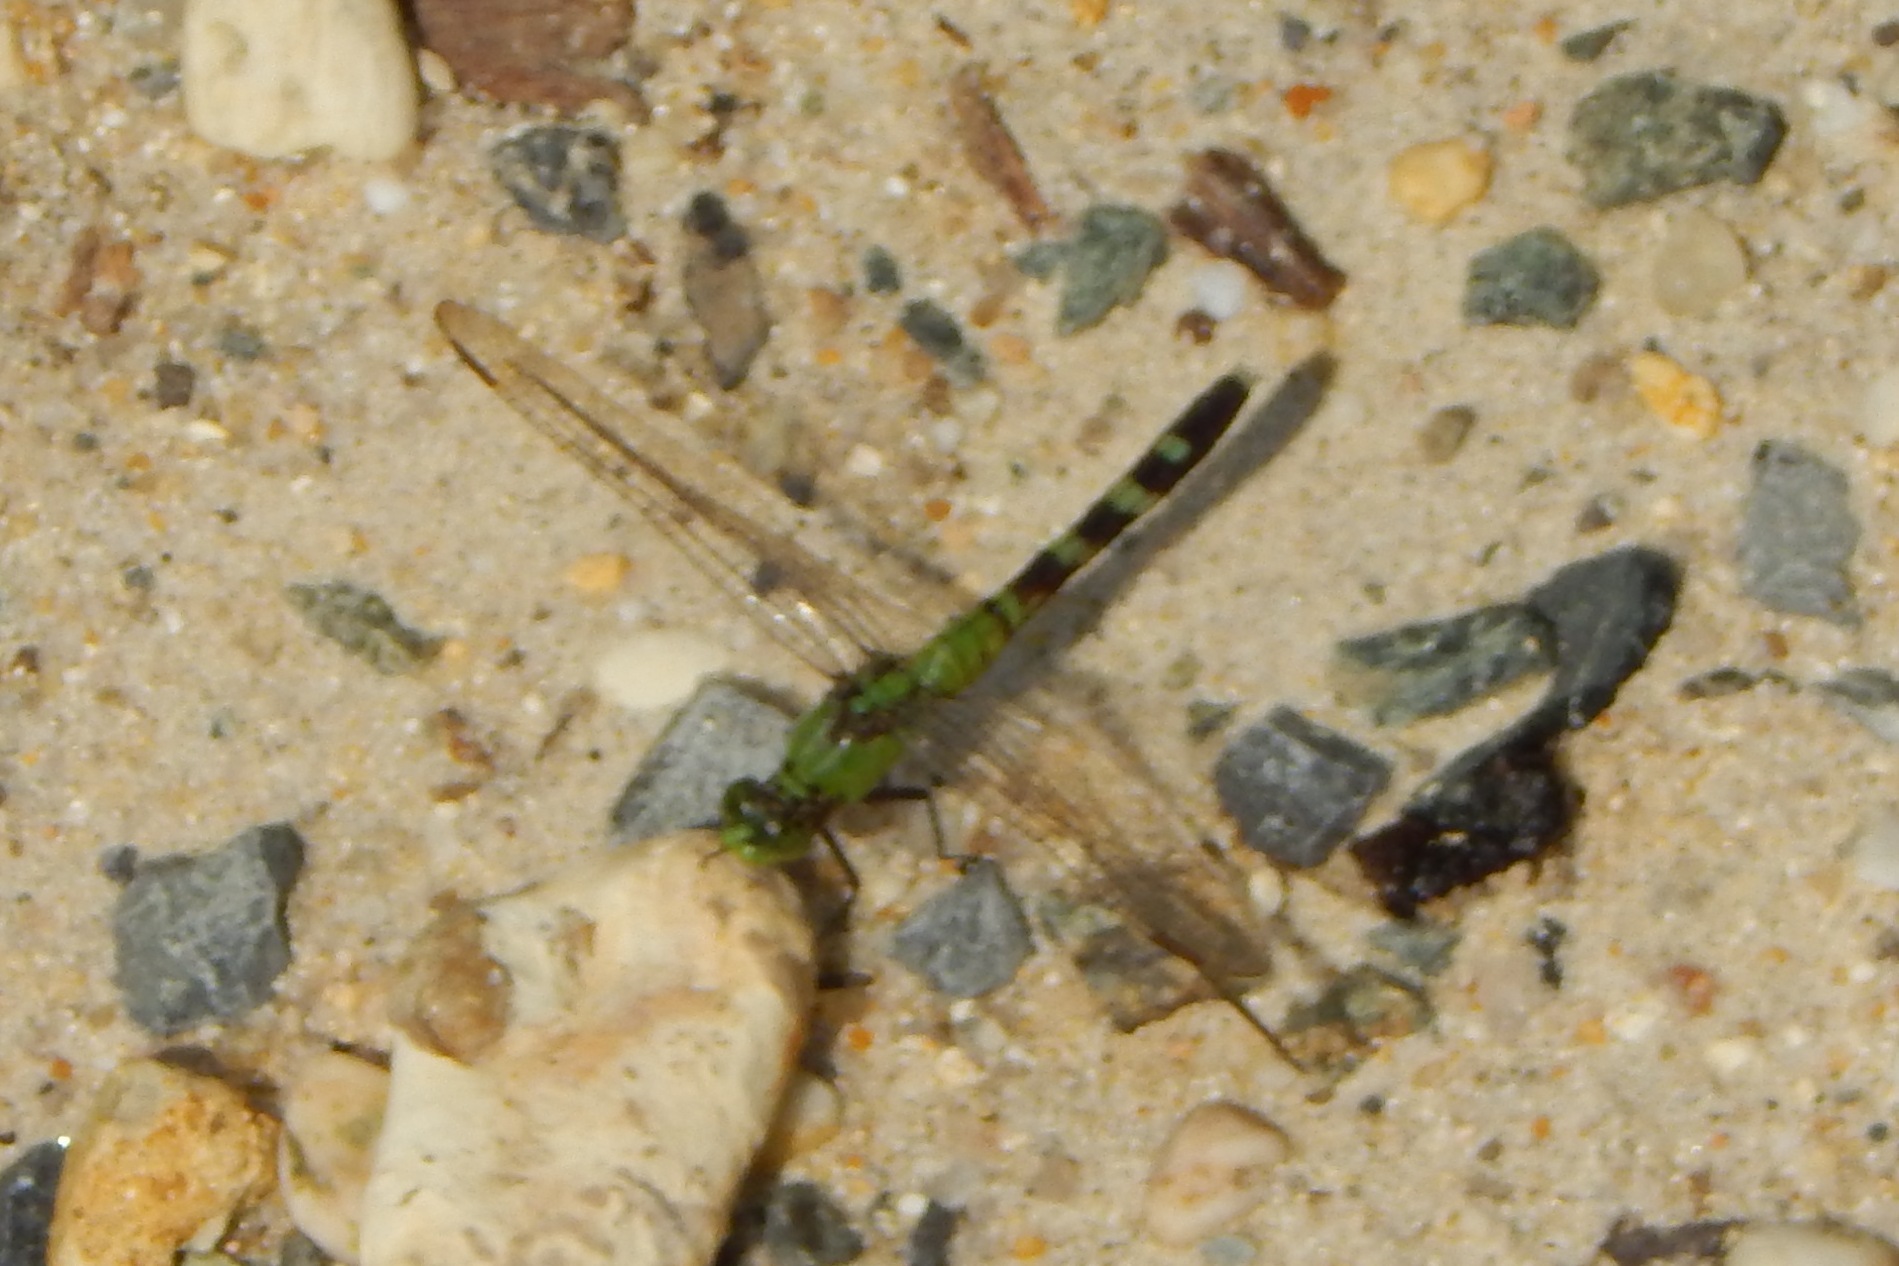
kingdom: Animalia
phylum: Arthropoda
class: Insecta
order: Odonata
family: Libellulidae
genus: Erythemis
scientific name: Erythemis simplicicollis
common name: Eastern pondhawk
